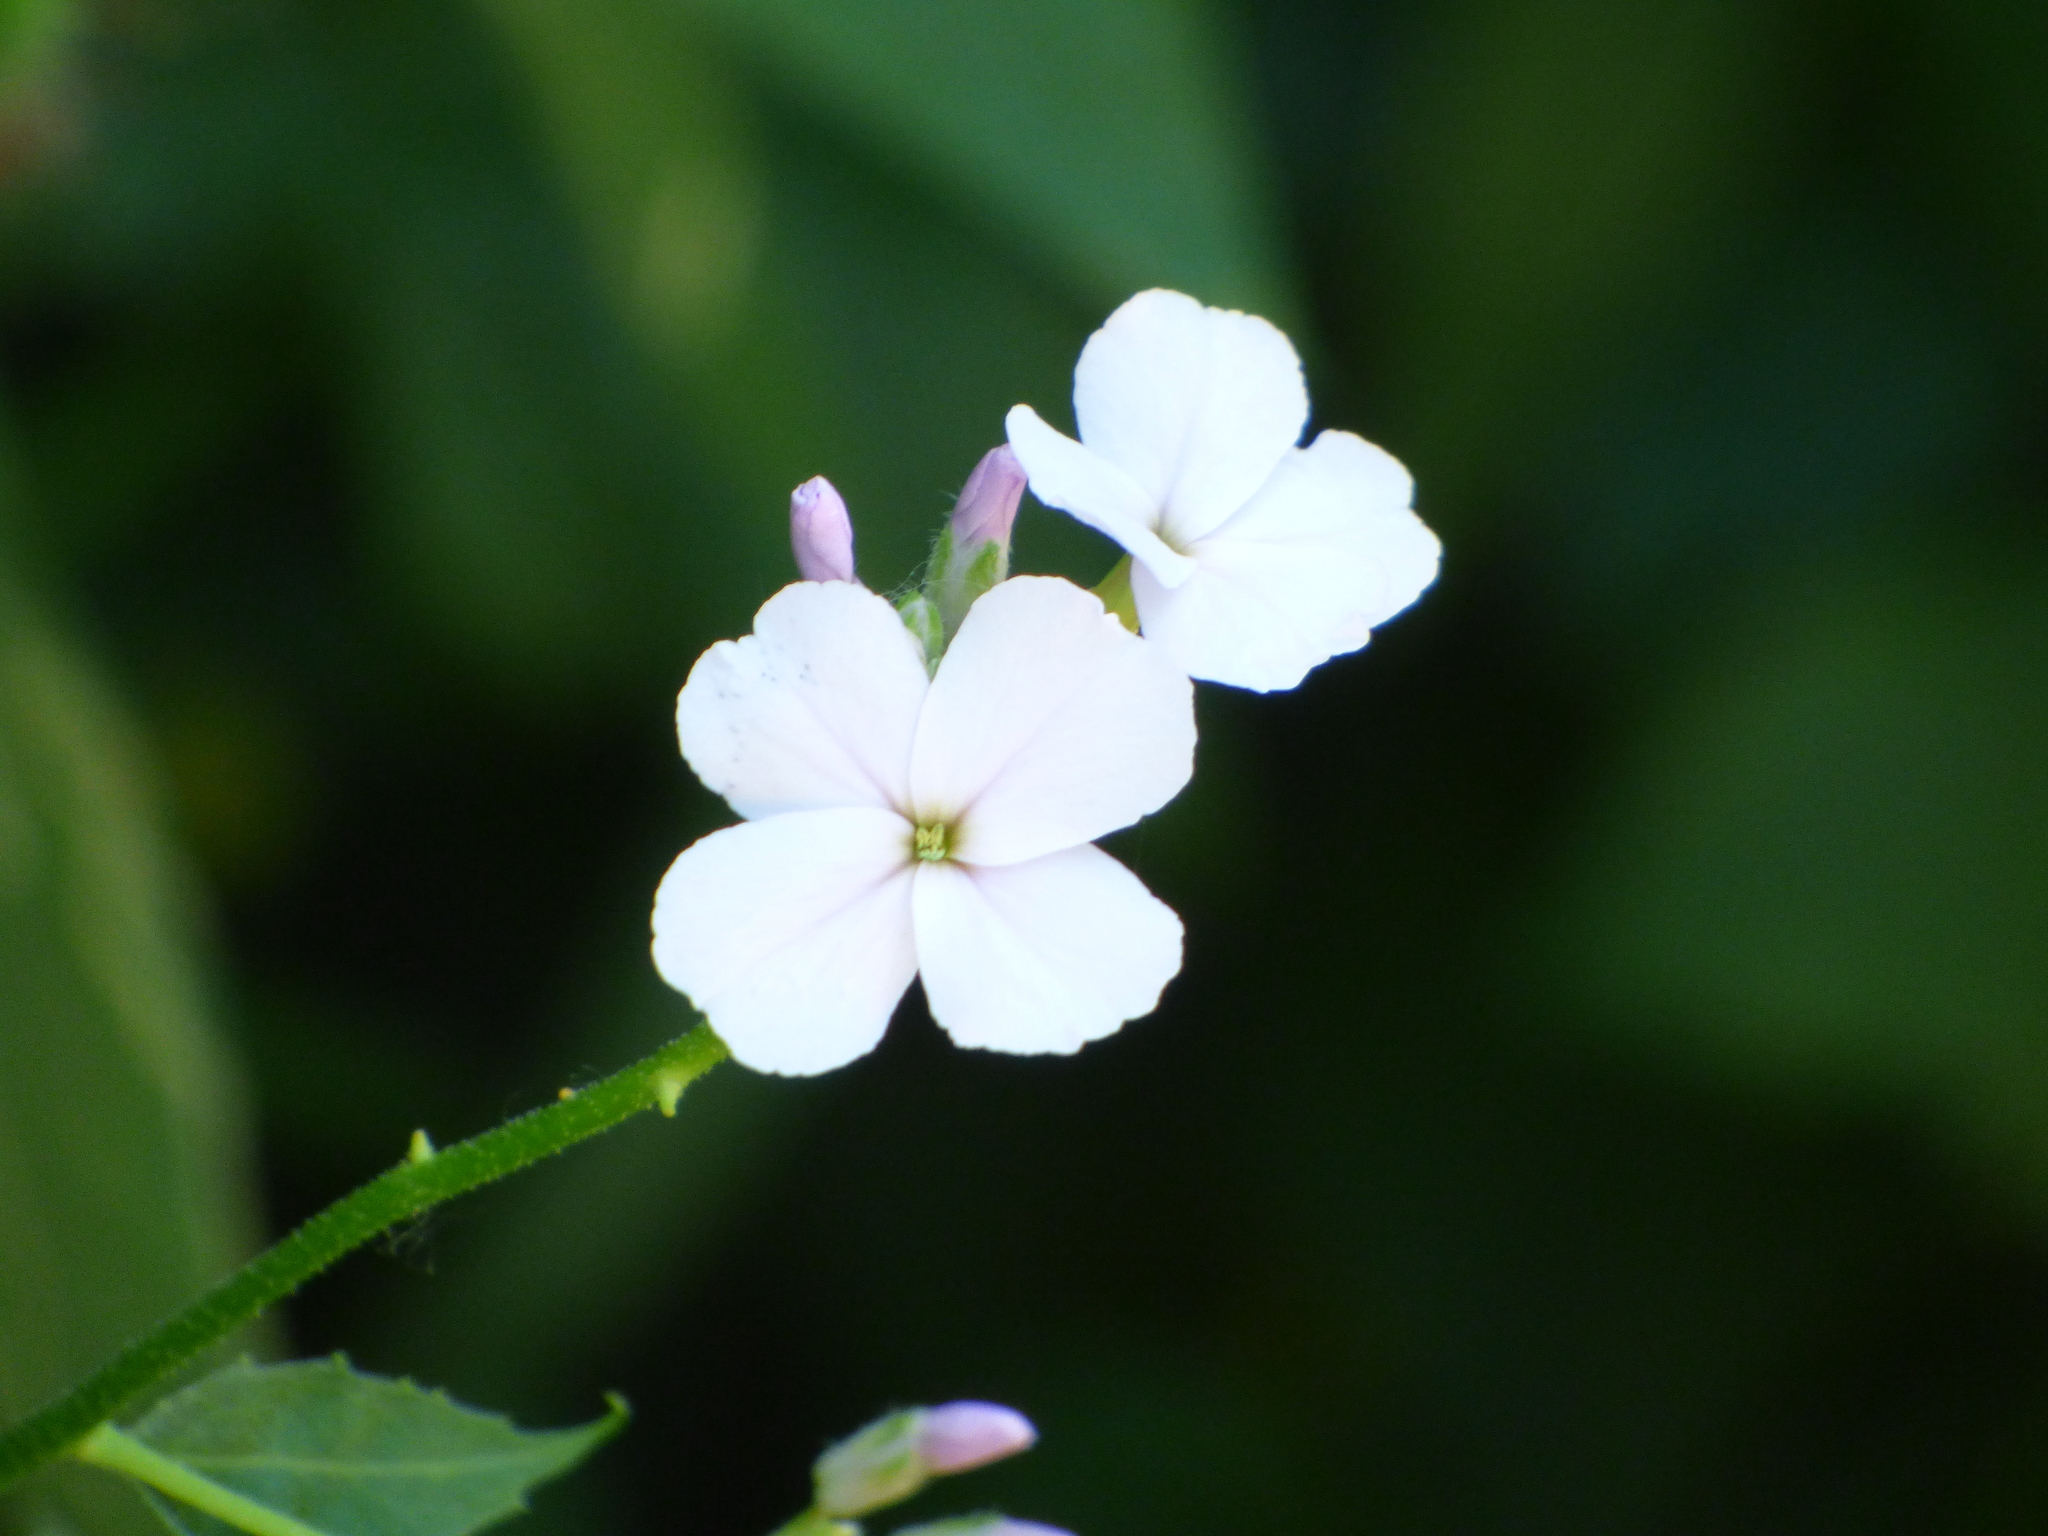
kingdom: Plantae
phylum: Tracheophyta
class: Magnoliopsida
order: Brassicales
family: Brassicaceae
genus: Hesperis
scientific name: Hesperis matronalis
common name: Dame's-violet
